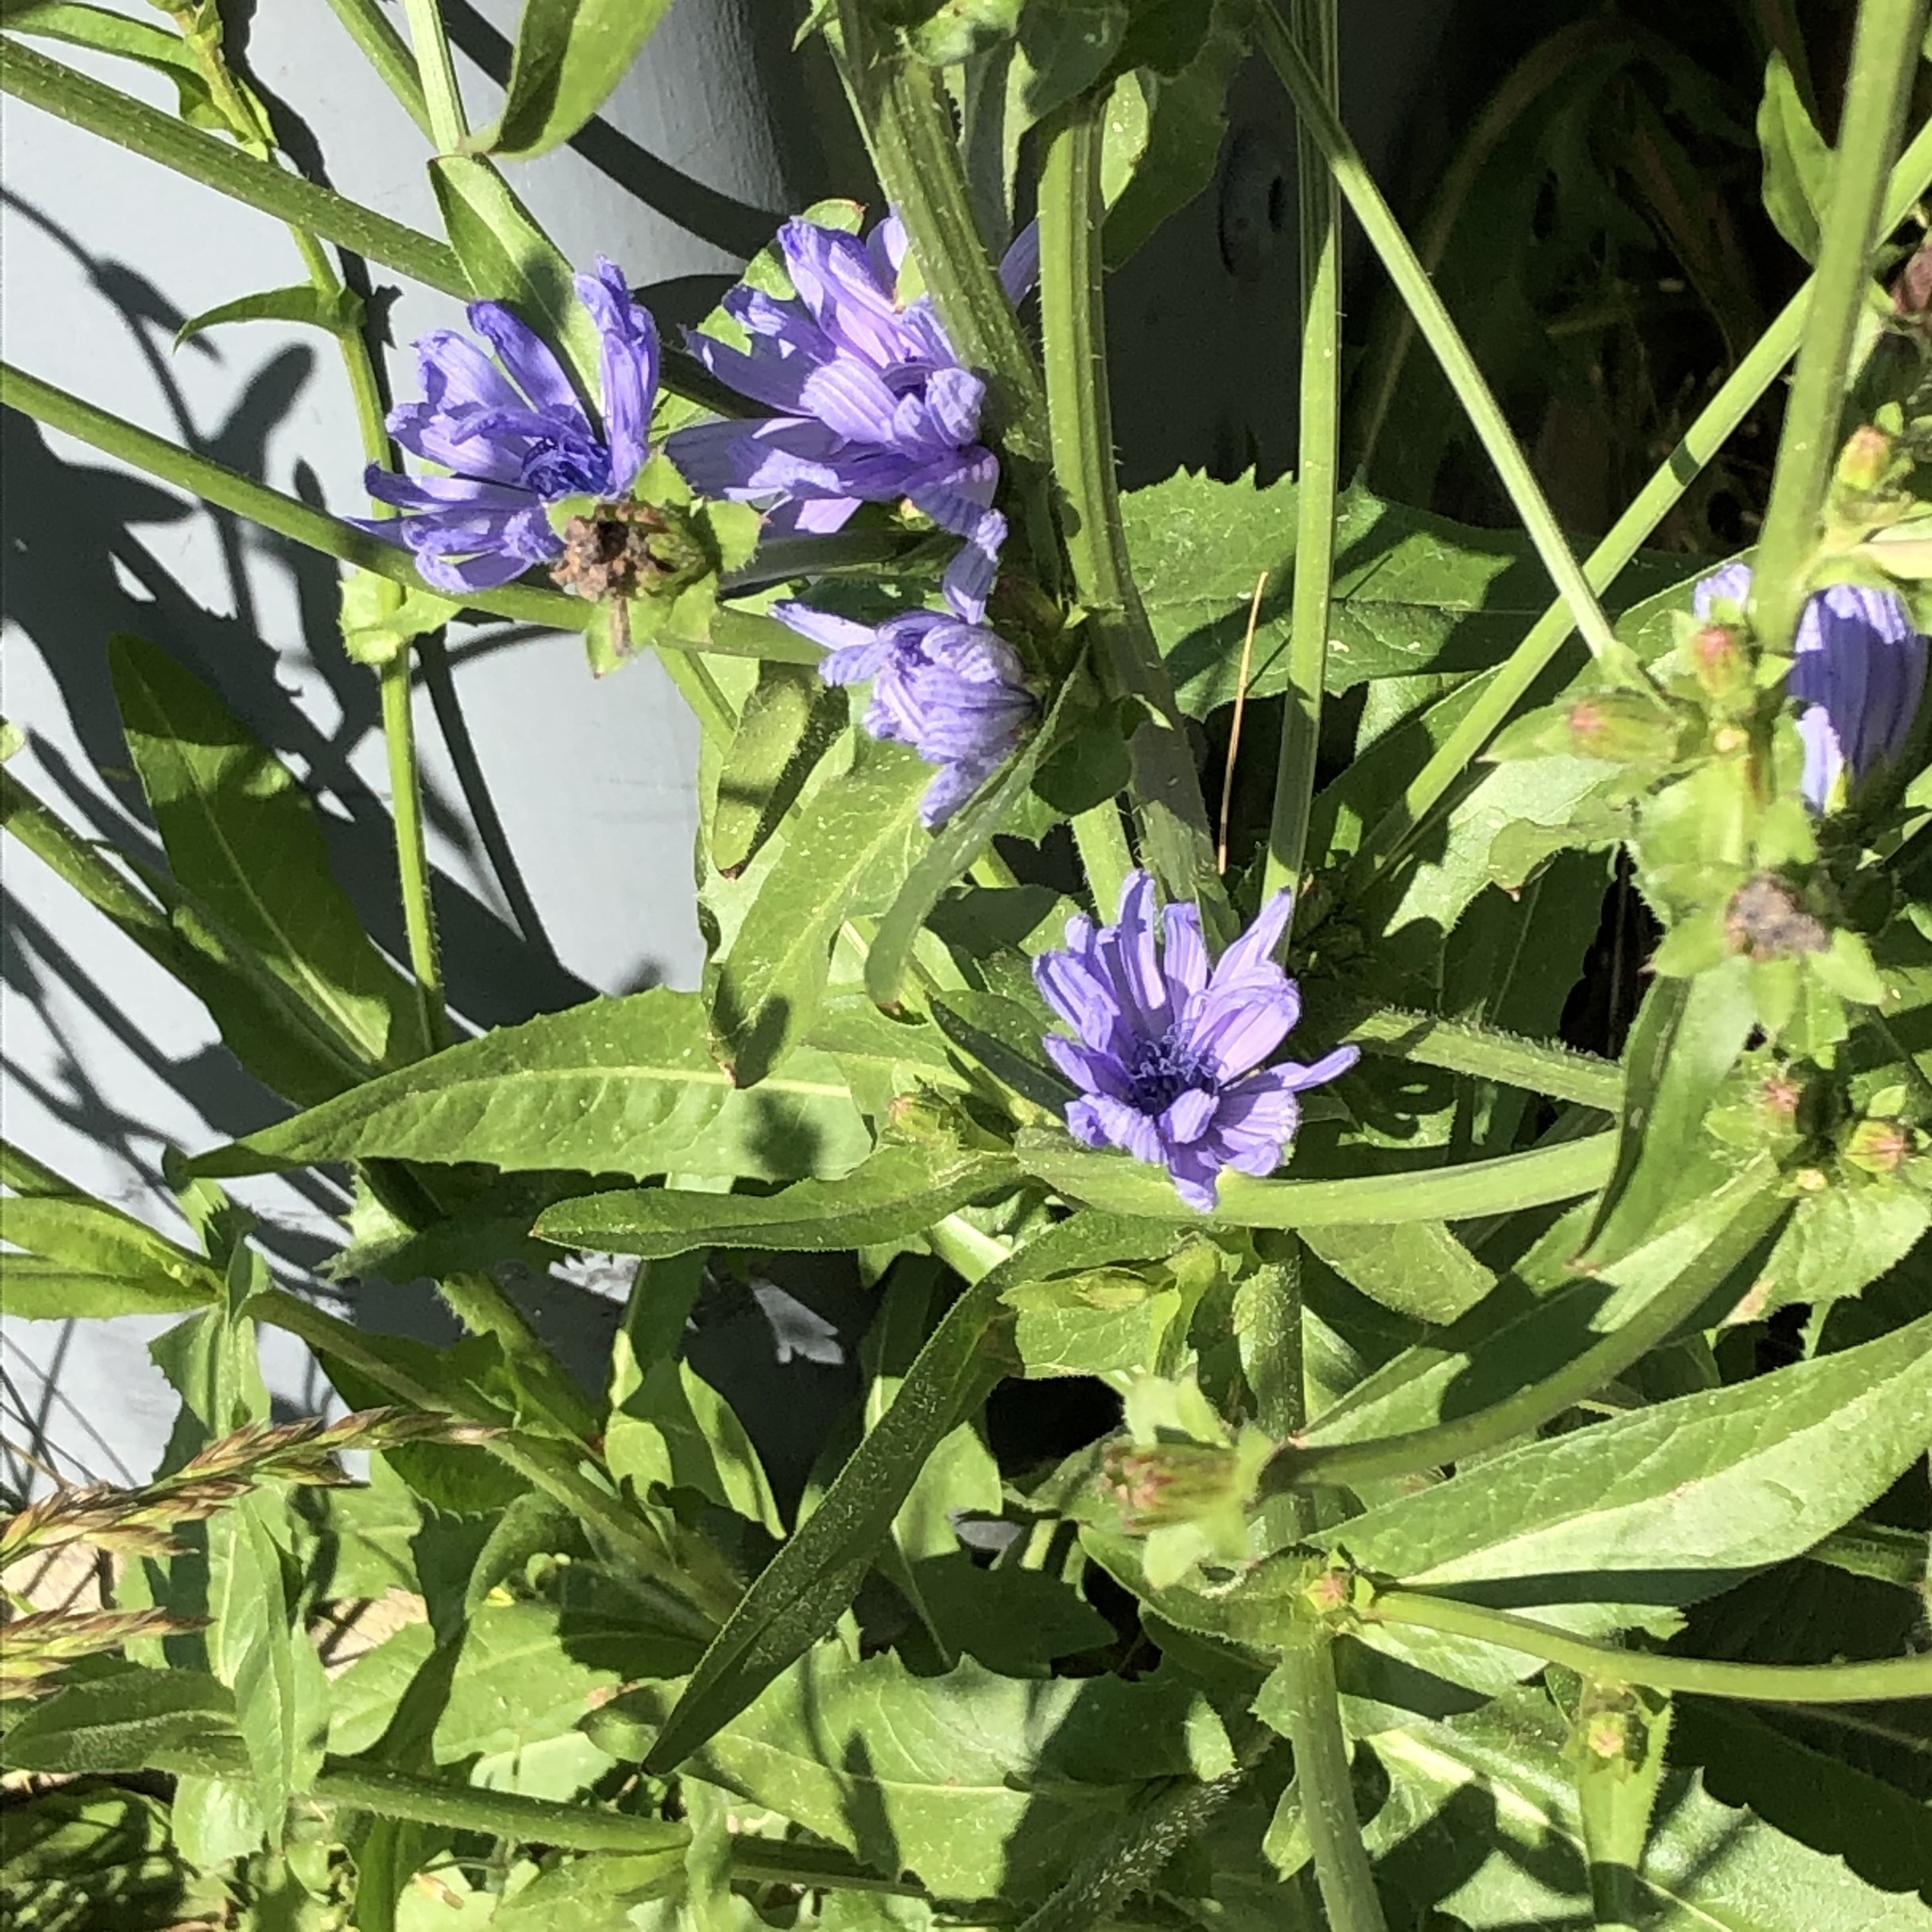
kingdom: Plantae
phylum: Tracheophyta
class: Magnoliopsida
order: Asterales
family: Asteraceae
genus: Cichorium
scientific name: Cichorium intybus
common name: Chicory
